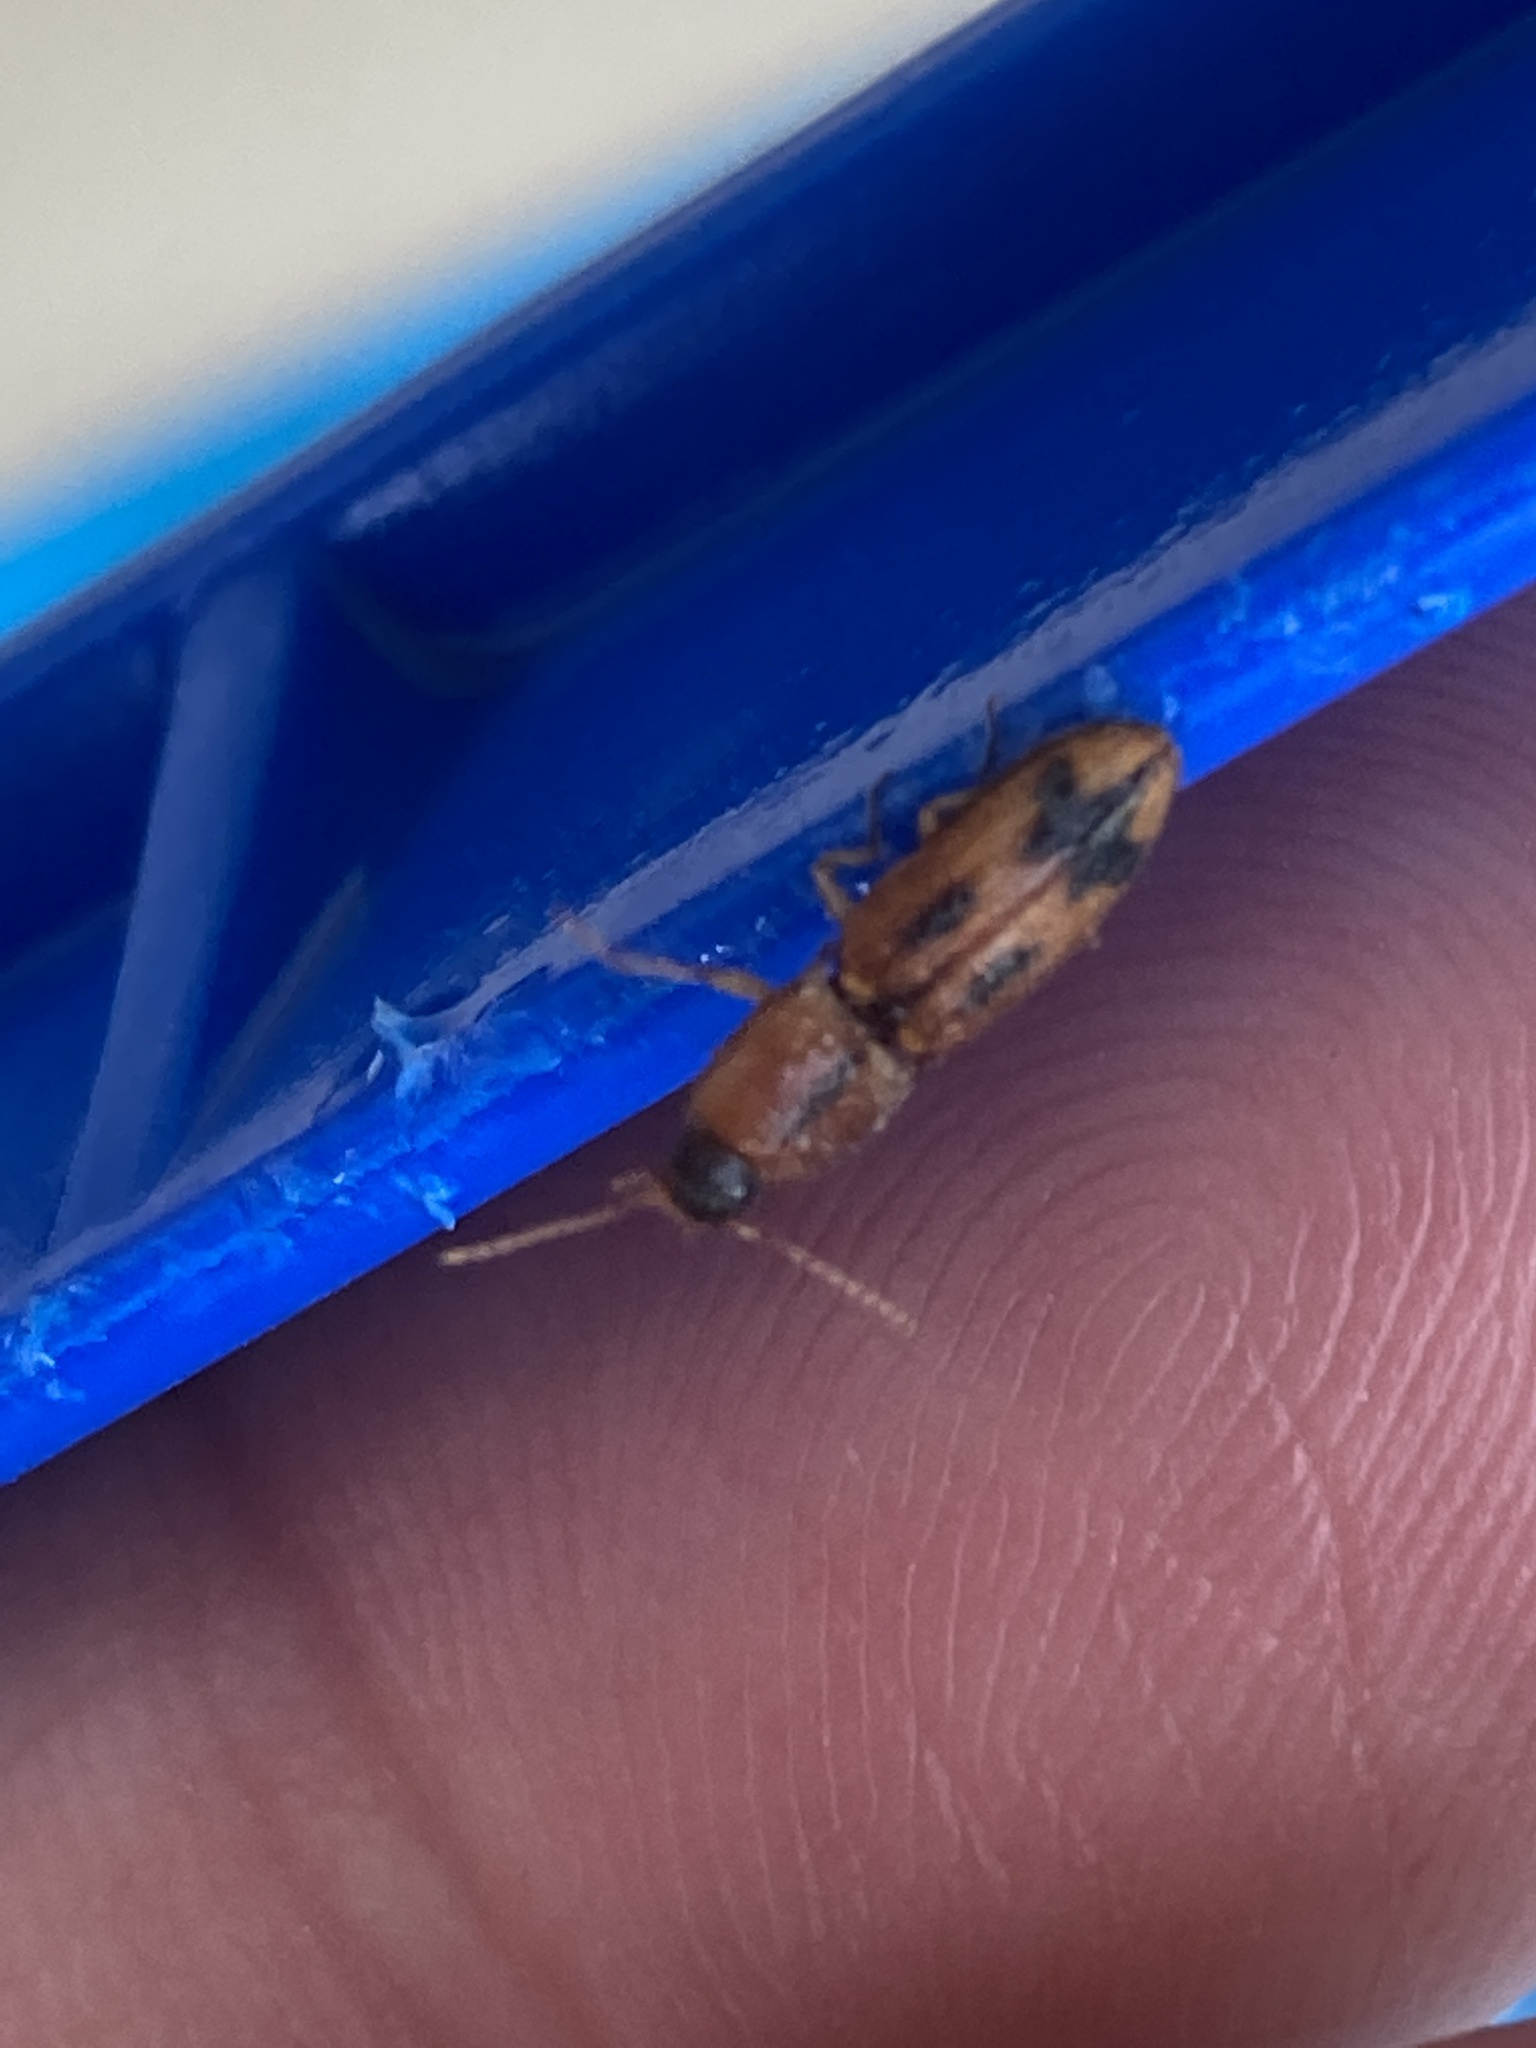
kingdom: Animalia
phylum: Arthropoda
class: Insecta
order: Coleoptera
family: Elateridae
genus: Aeolus
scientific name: Aeolus mellillus
